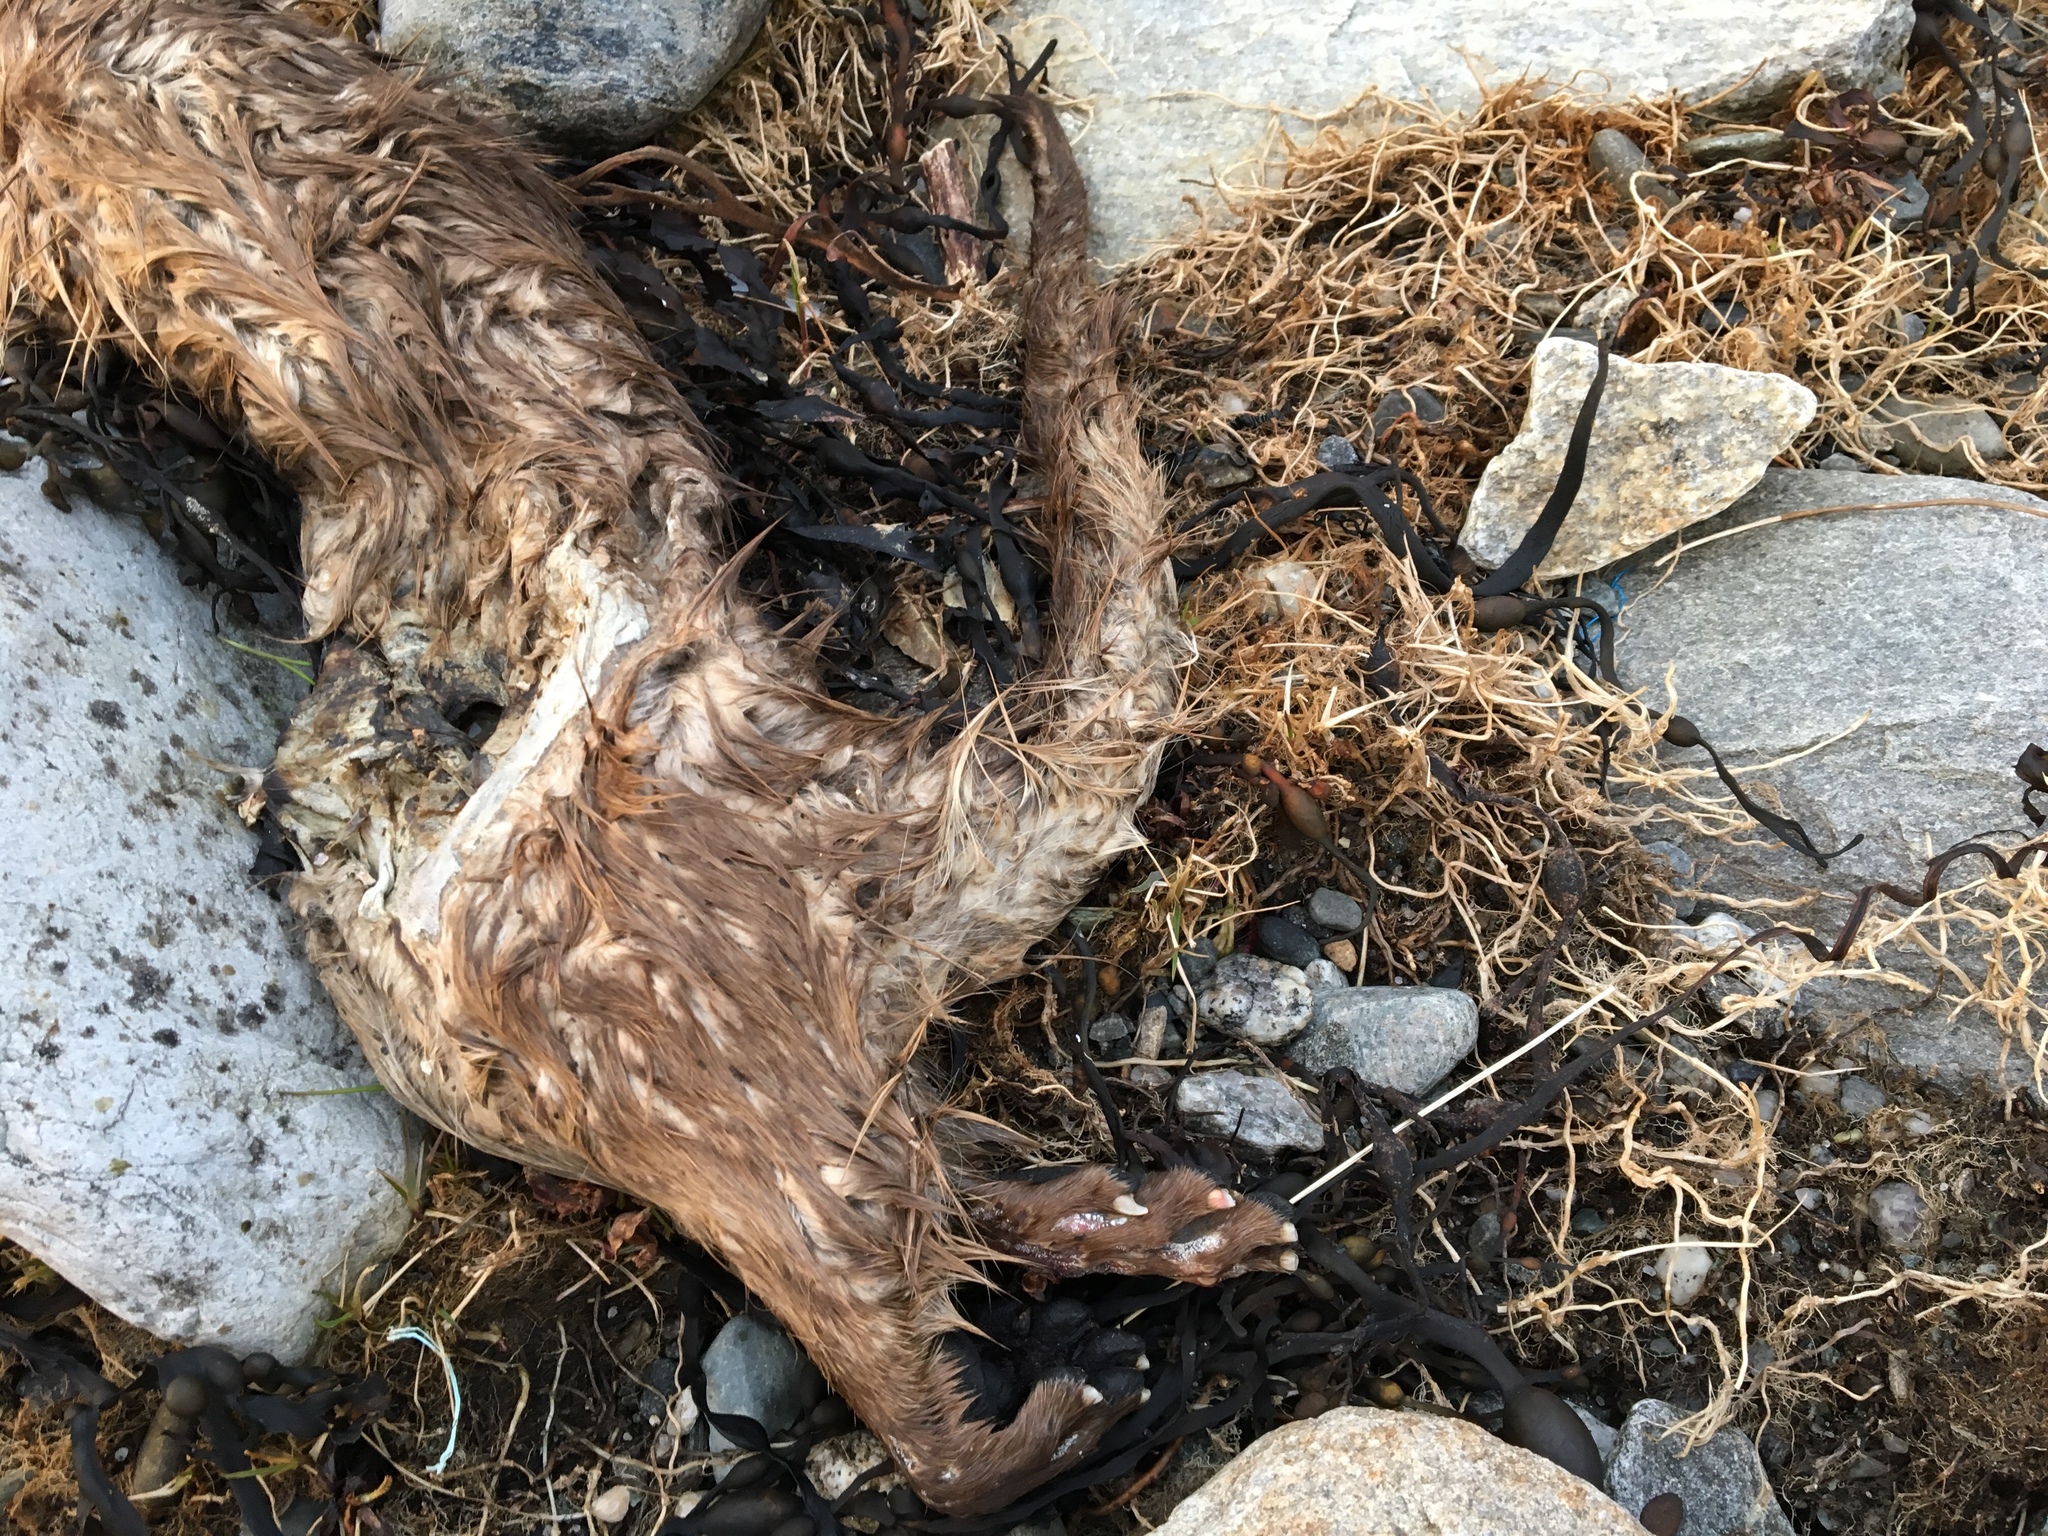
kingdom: Animalia
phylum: Chordata
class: Mammalia
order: Carnivora
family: Mustelidae
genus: Mustela
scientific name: Mustela
